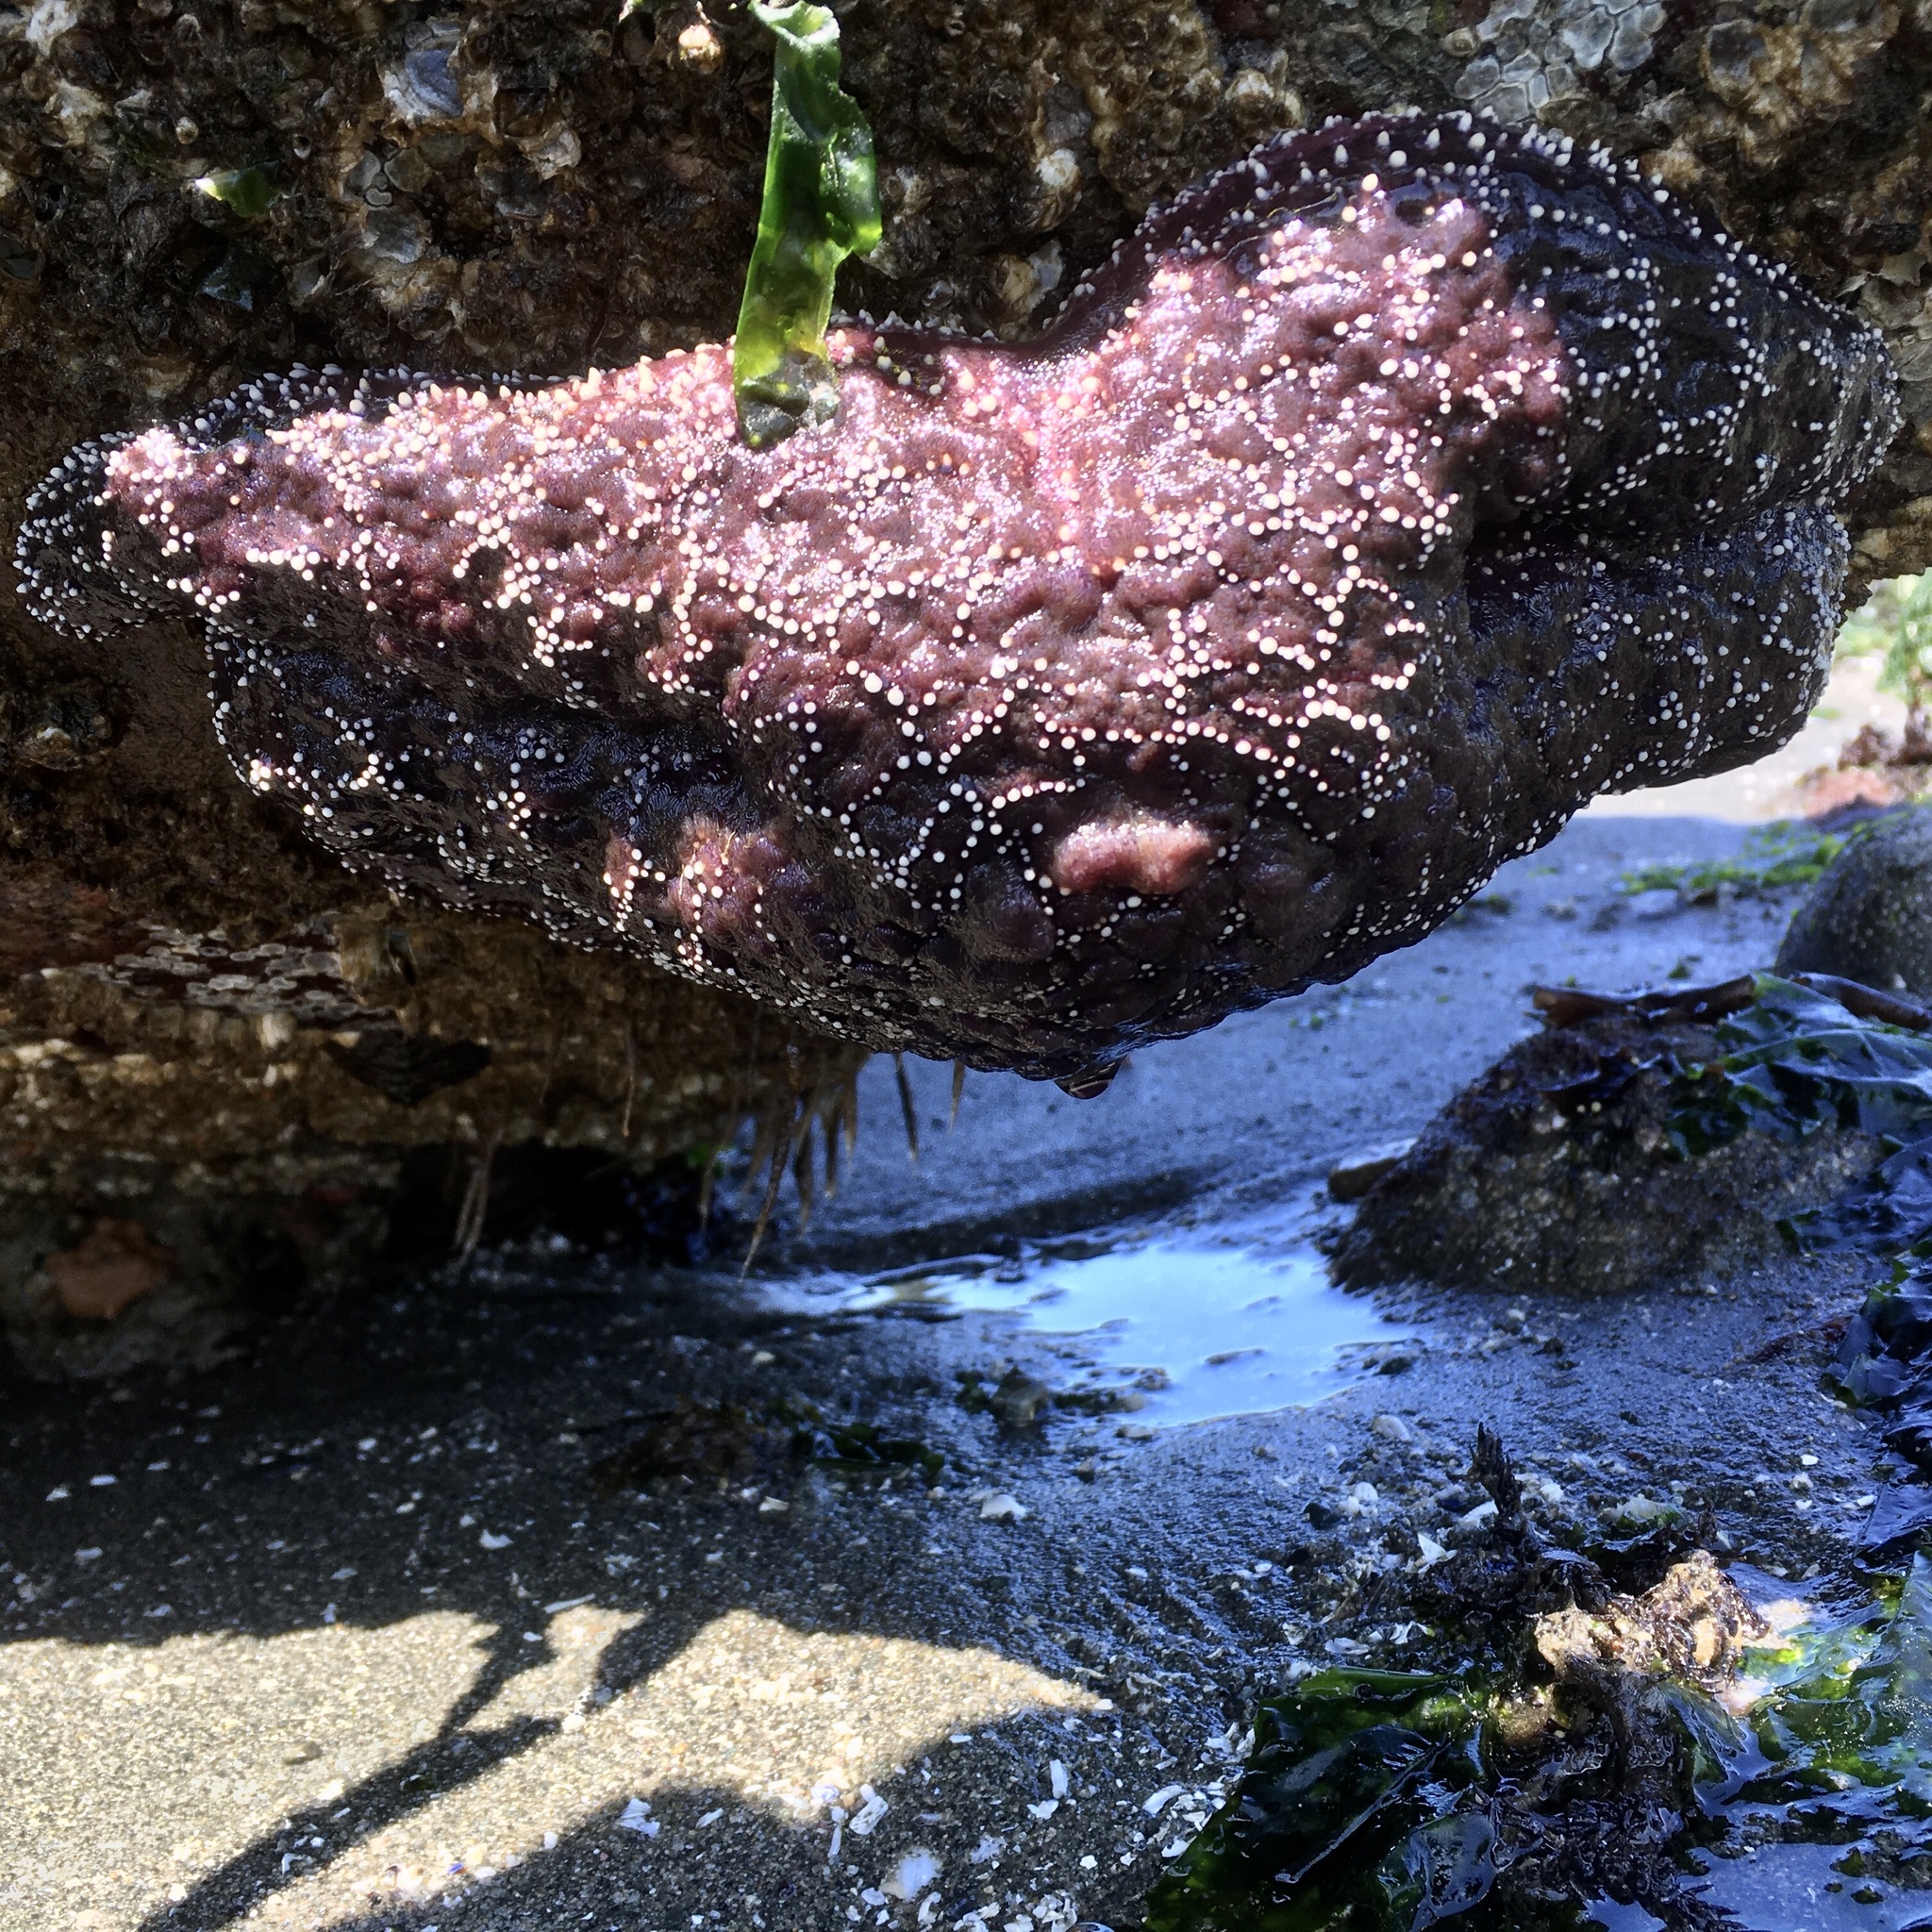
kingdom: Animalia
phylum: Echinodermata
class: Asteroidea
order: Forcipulatida
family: Asteriidae
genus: Pisaster
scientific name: Pisaster ochraceus
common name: Ochre stars
